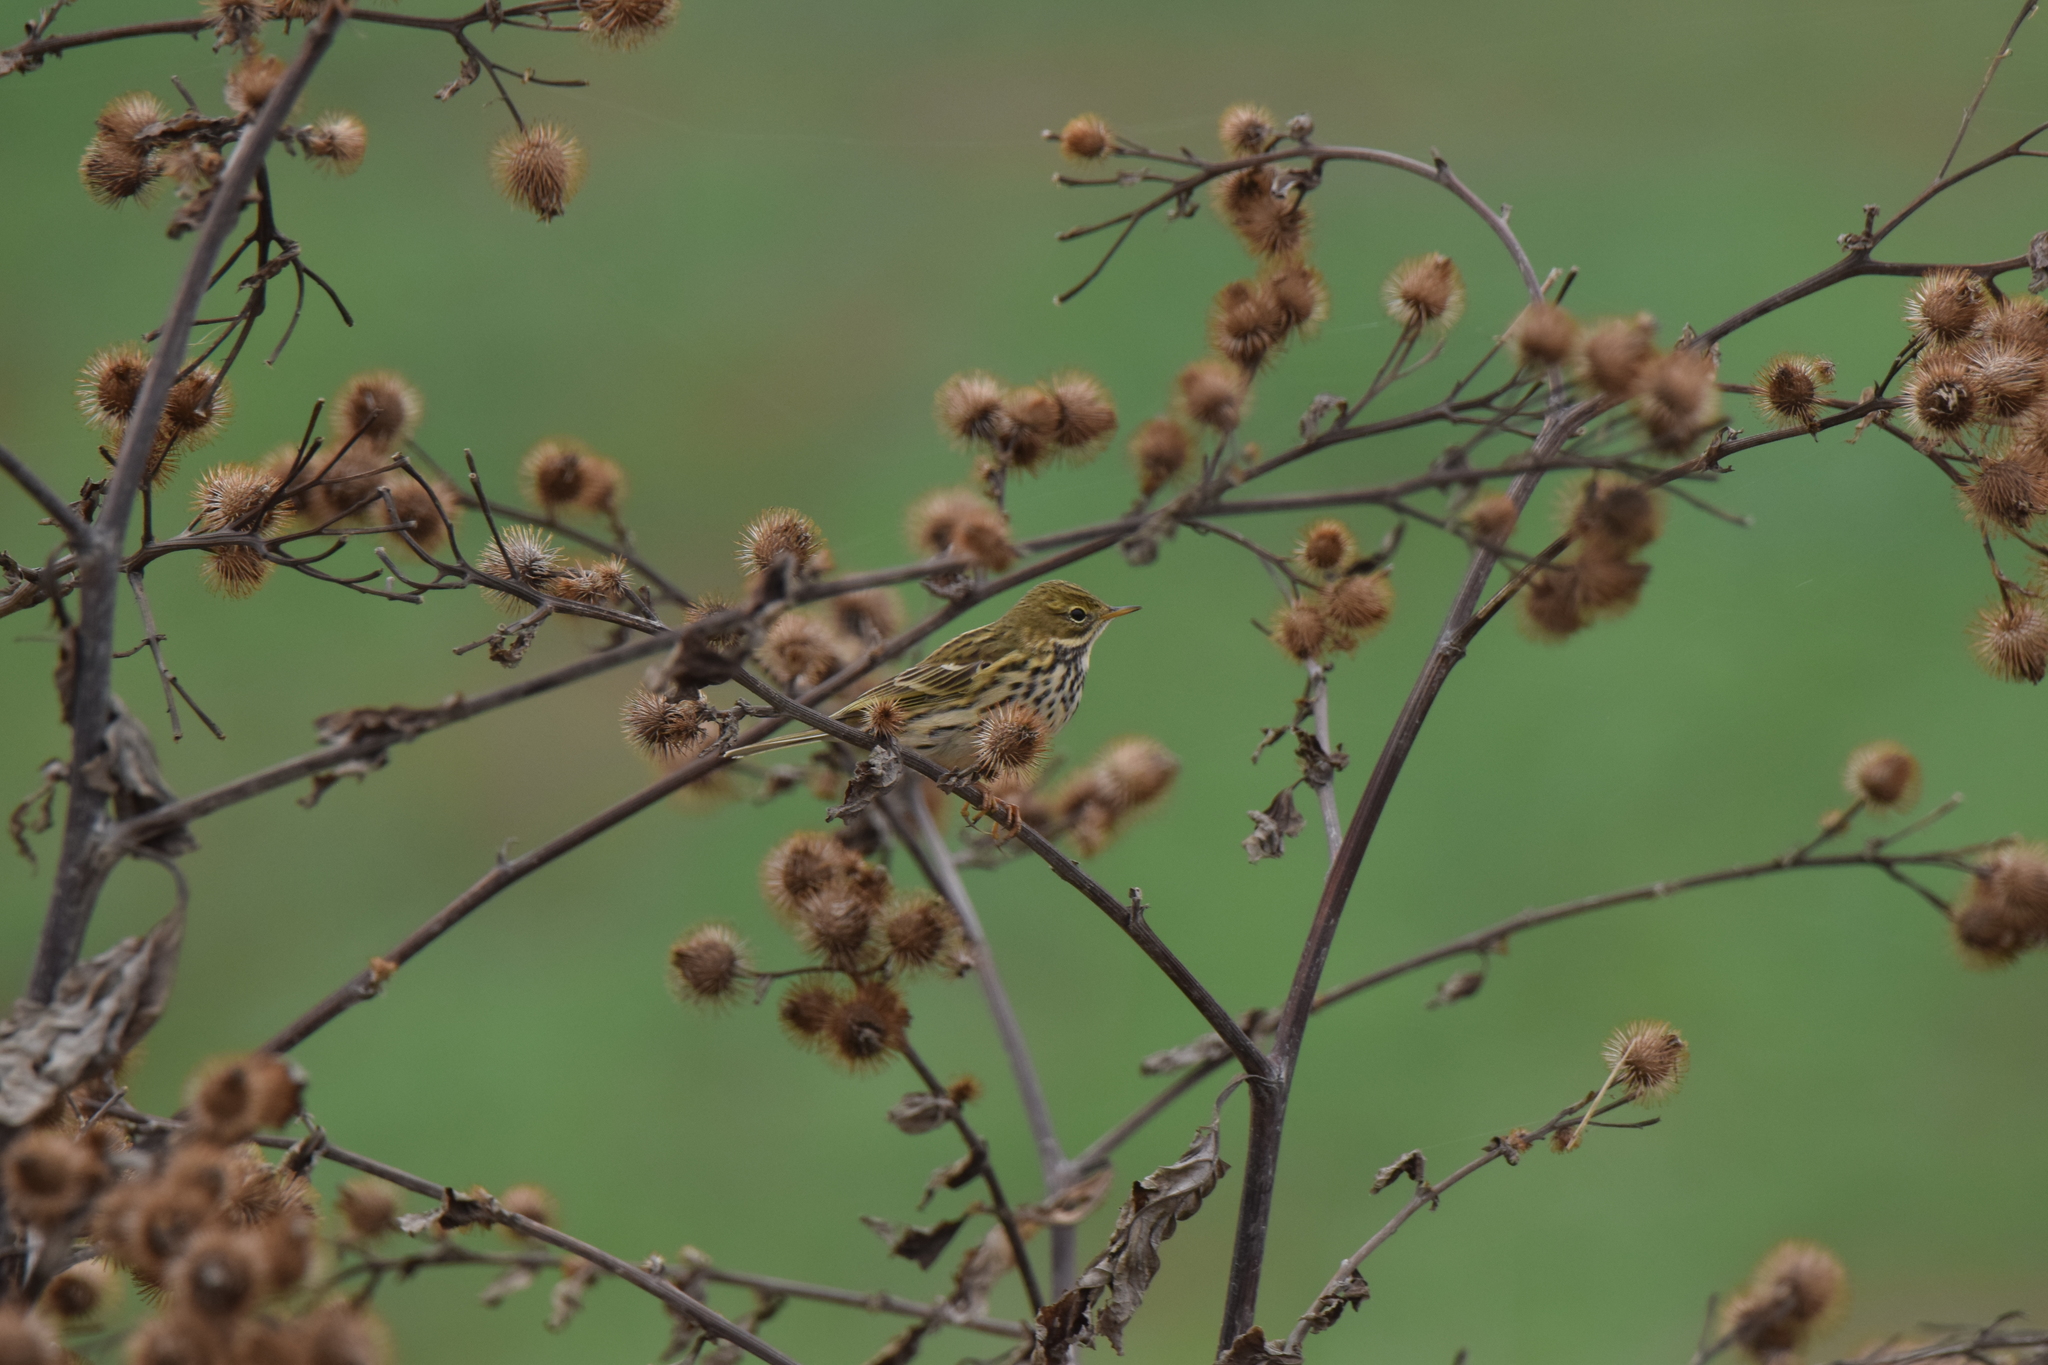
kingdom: Animalia
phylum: Chordata
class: Aves
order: Passeriformes
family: Motacillidae
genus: Anthus
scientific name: Anthus pratensis
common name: Meadow pipit
